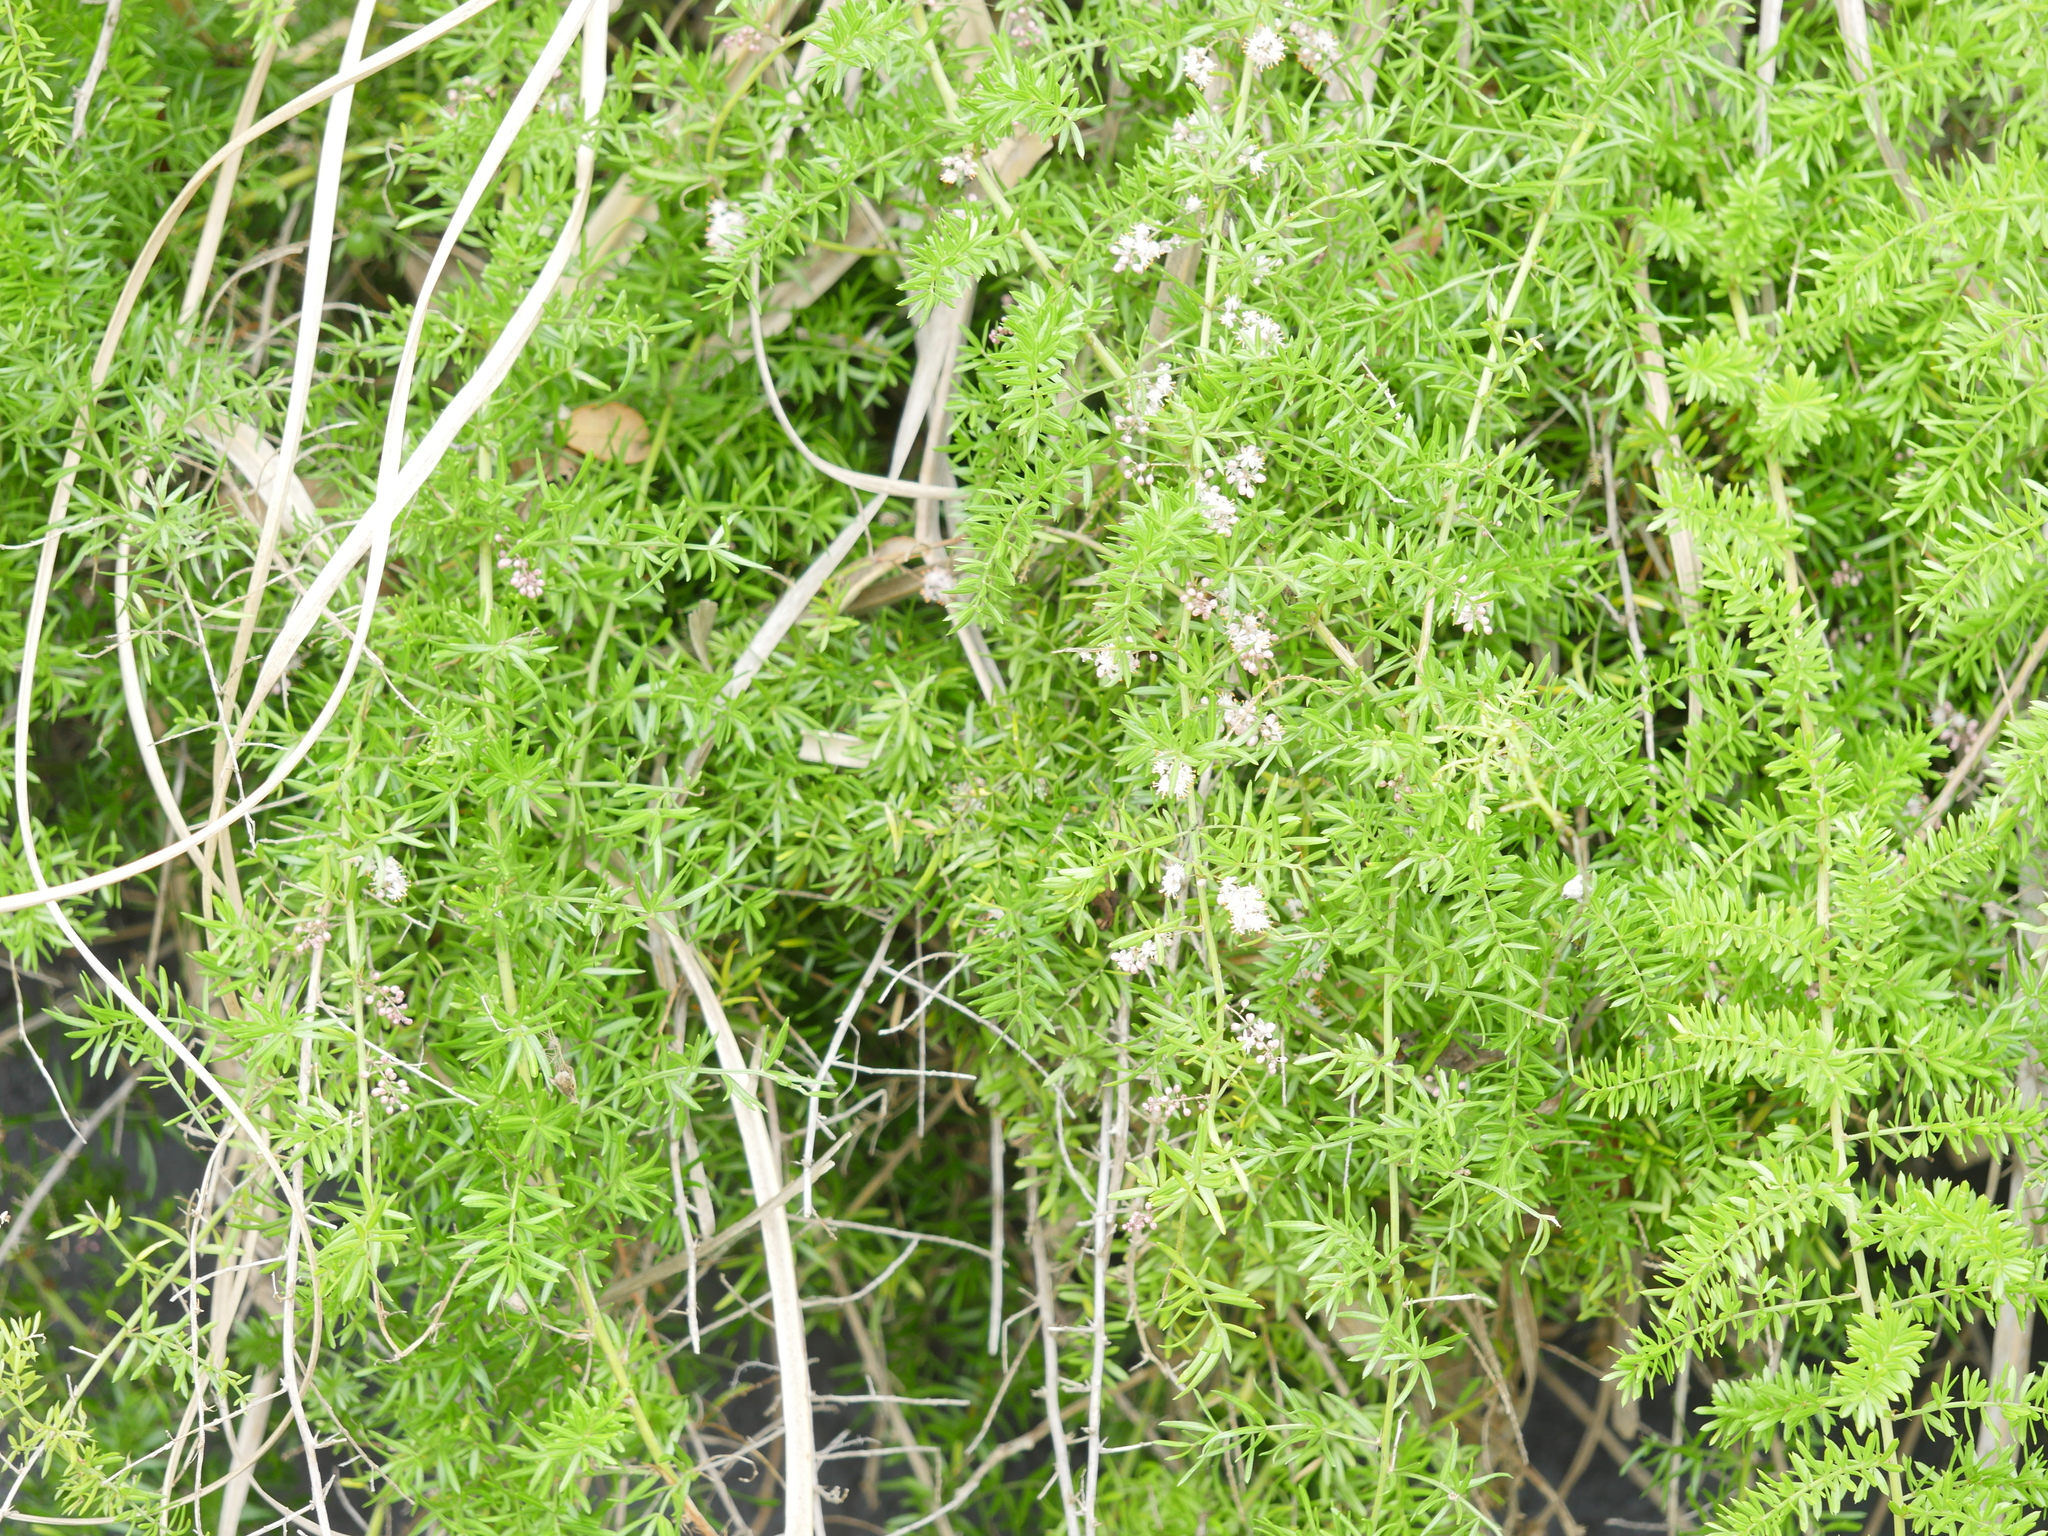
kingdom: Plantae
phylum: Tracheophyta
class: Liliopsida
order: Asparagales
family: Asparagaceae
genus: Asparagus
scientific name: Asparagus scandens
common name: Asparagus-fern
